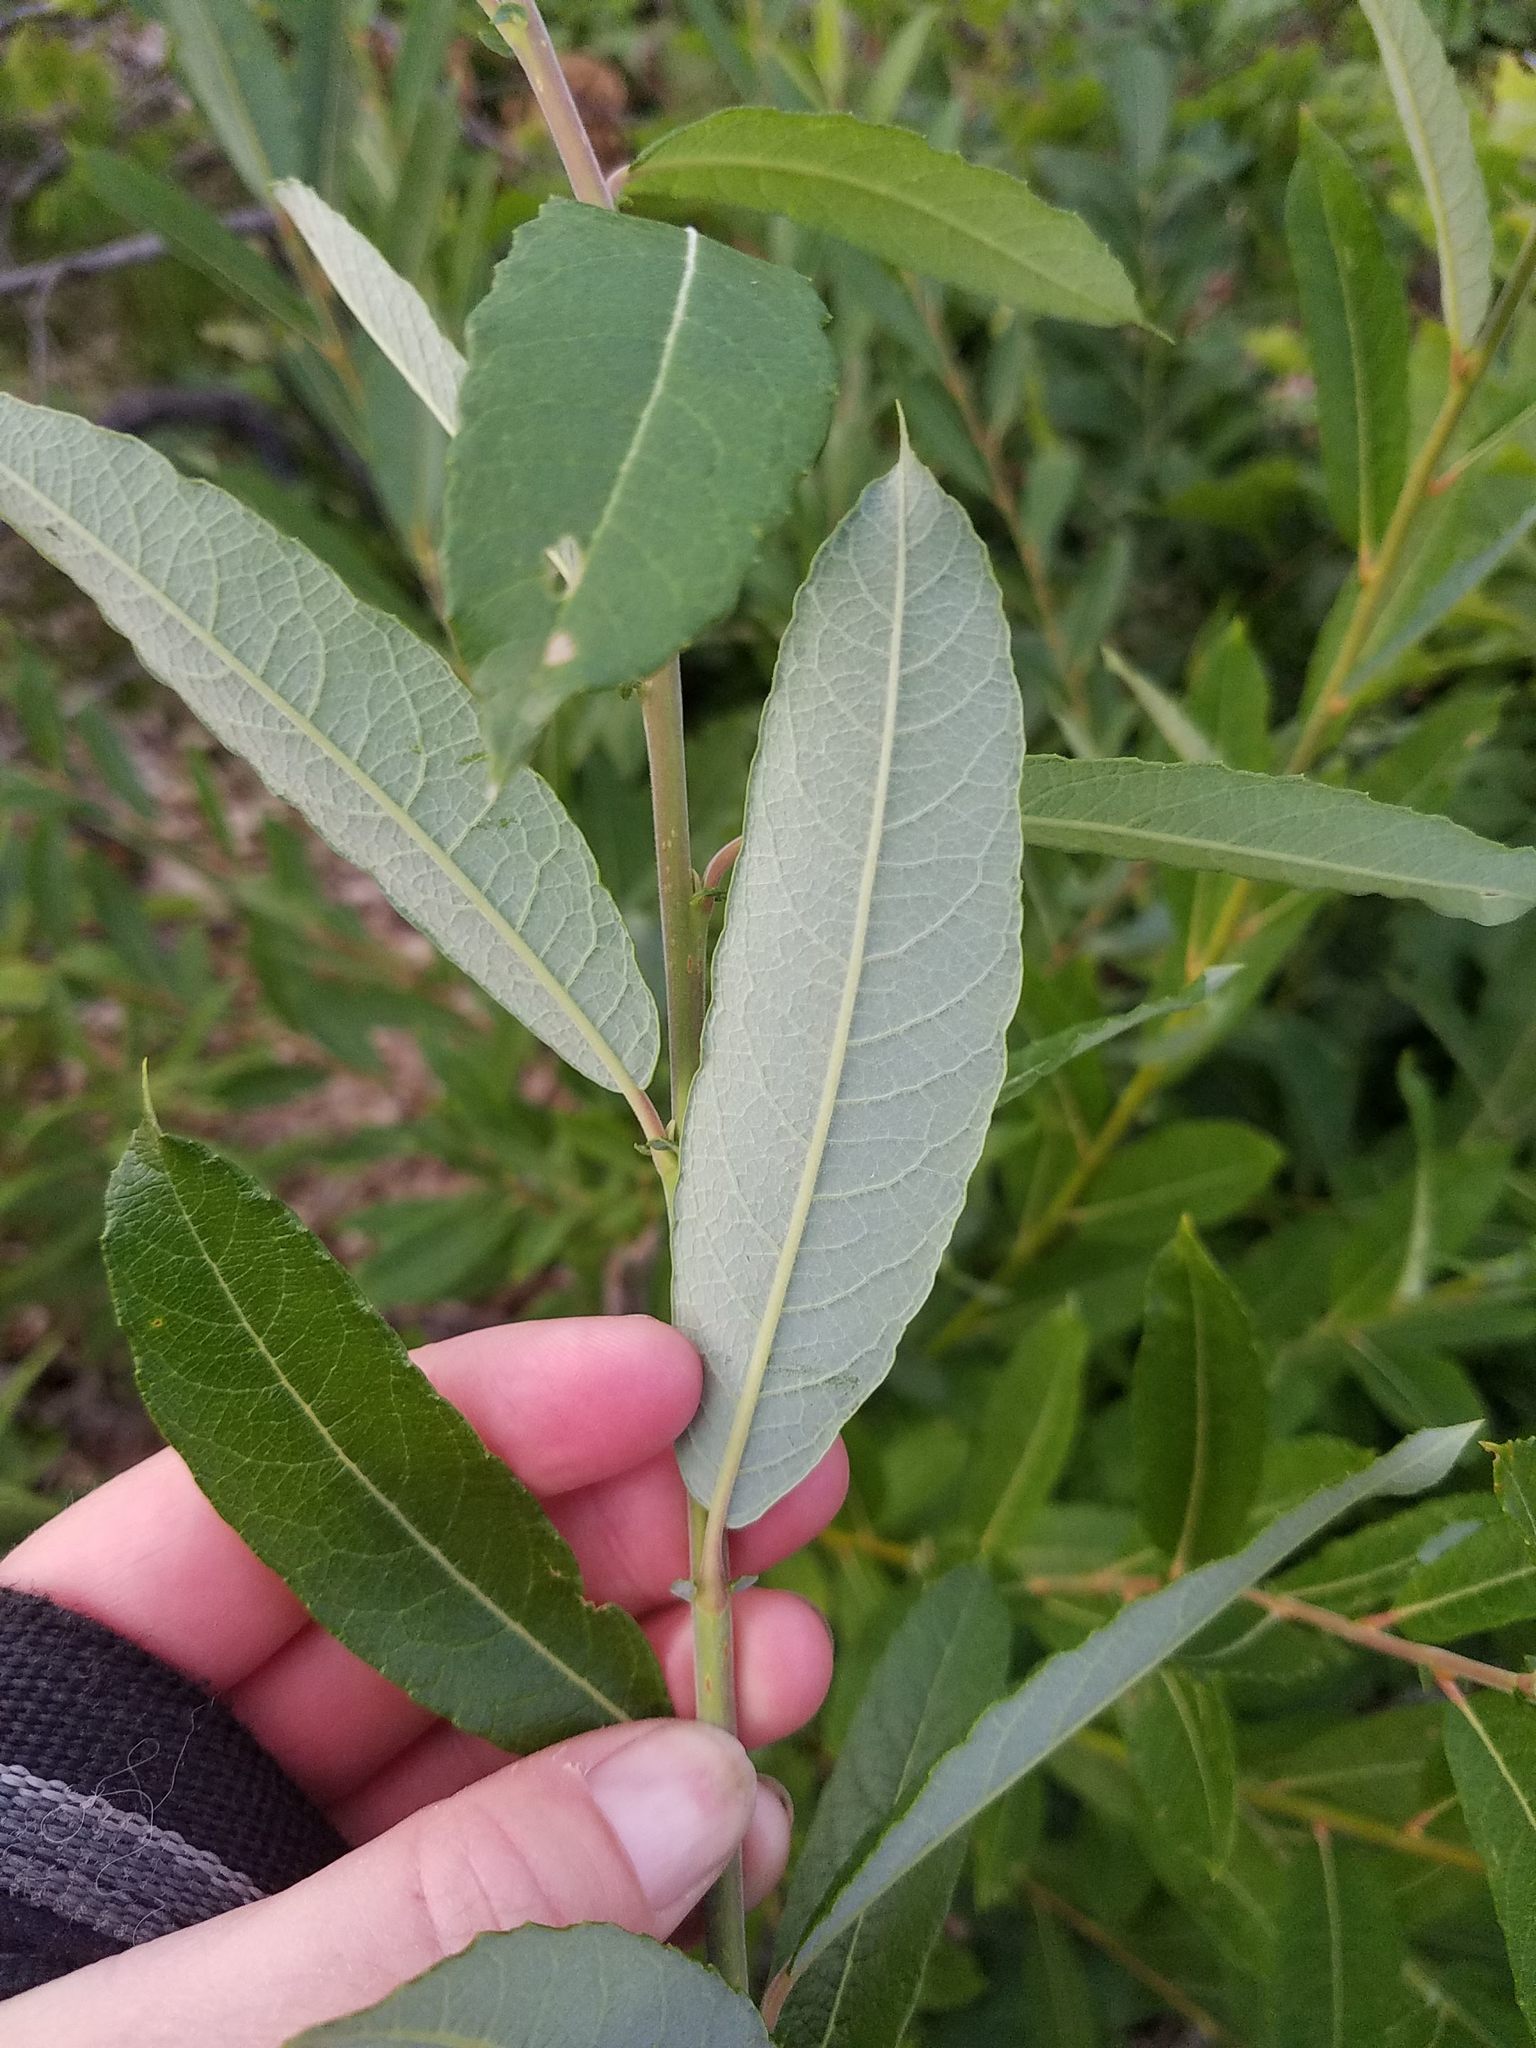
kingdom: Plantae
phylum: Tracheophyta
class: Magnoliopsida
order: Malpighiales
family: Salicaceae
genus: Salix
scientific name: Salix humilis
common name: Prairie willow
